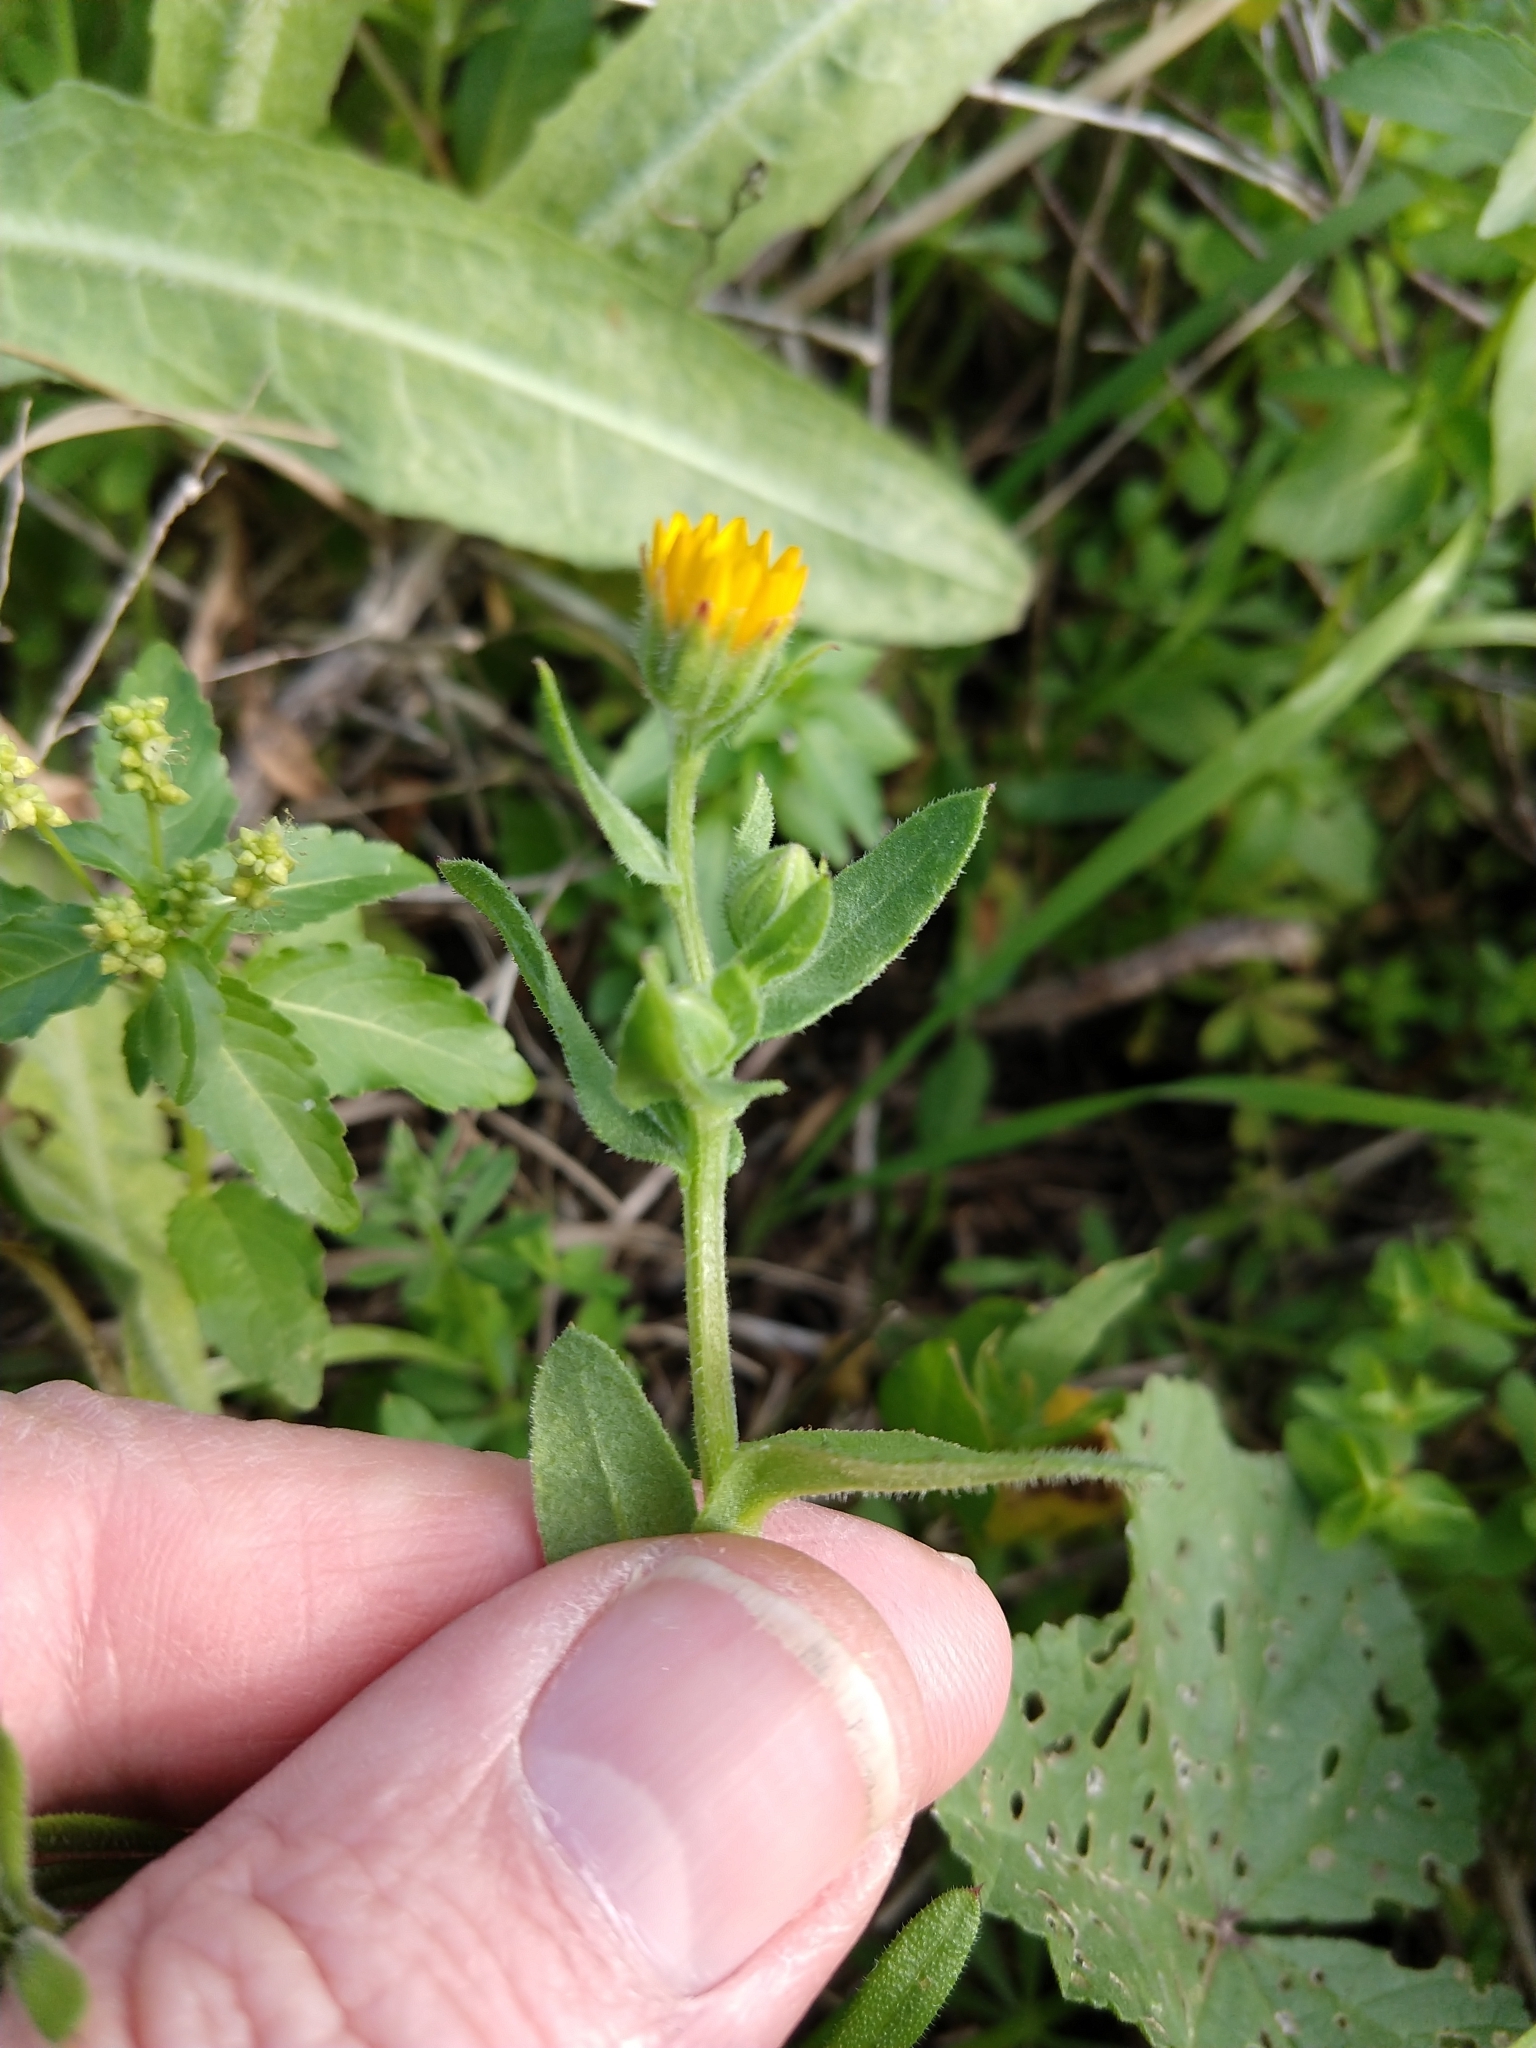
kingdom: Plantae
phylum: Tracheophyta
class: Magnoliopsida
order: Asterales
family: Asteraceae
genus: Calendula
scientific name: Calendula arvensis
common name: Field marigold
